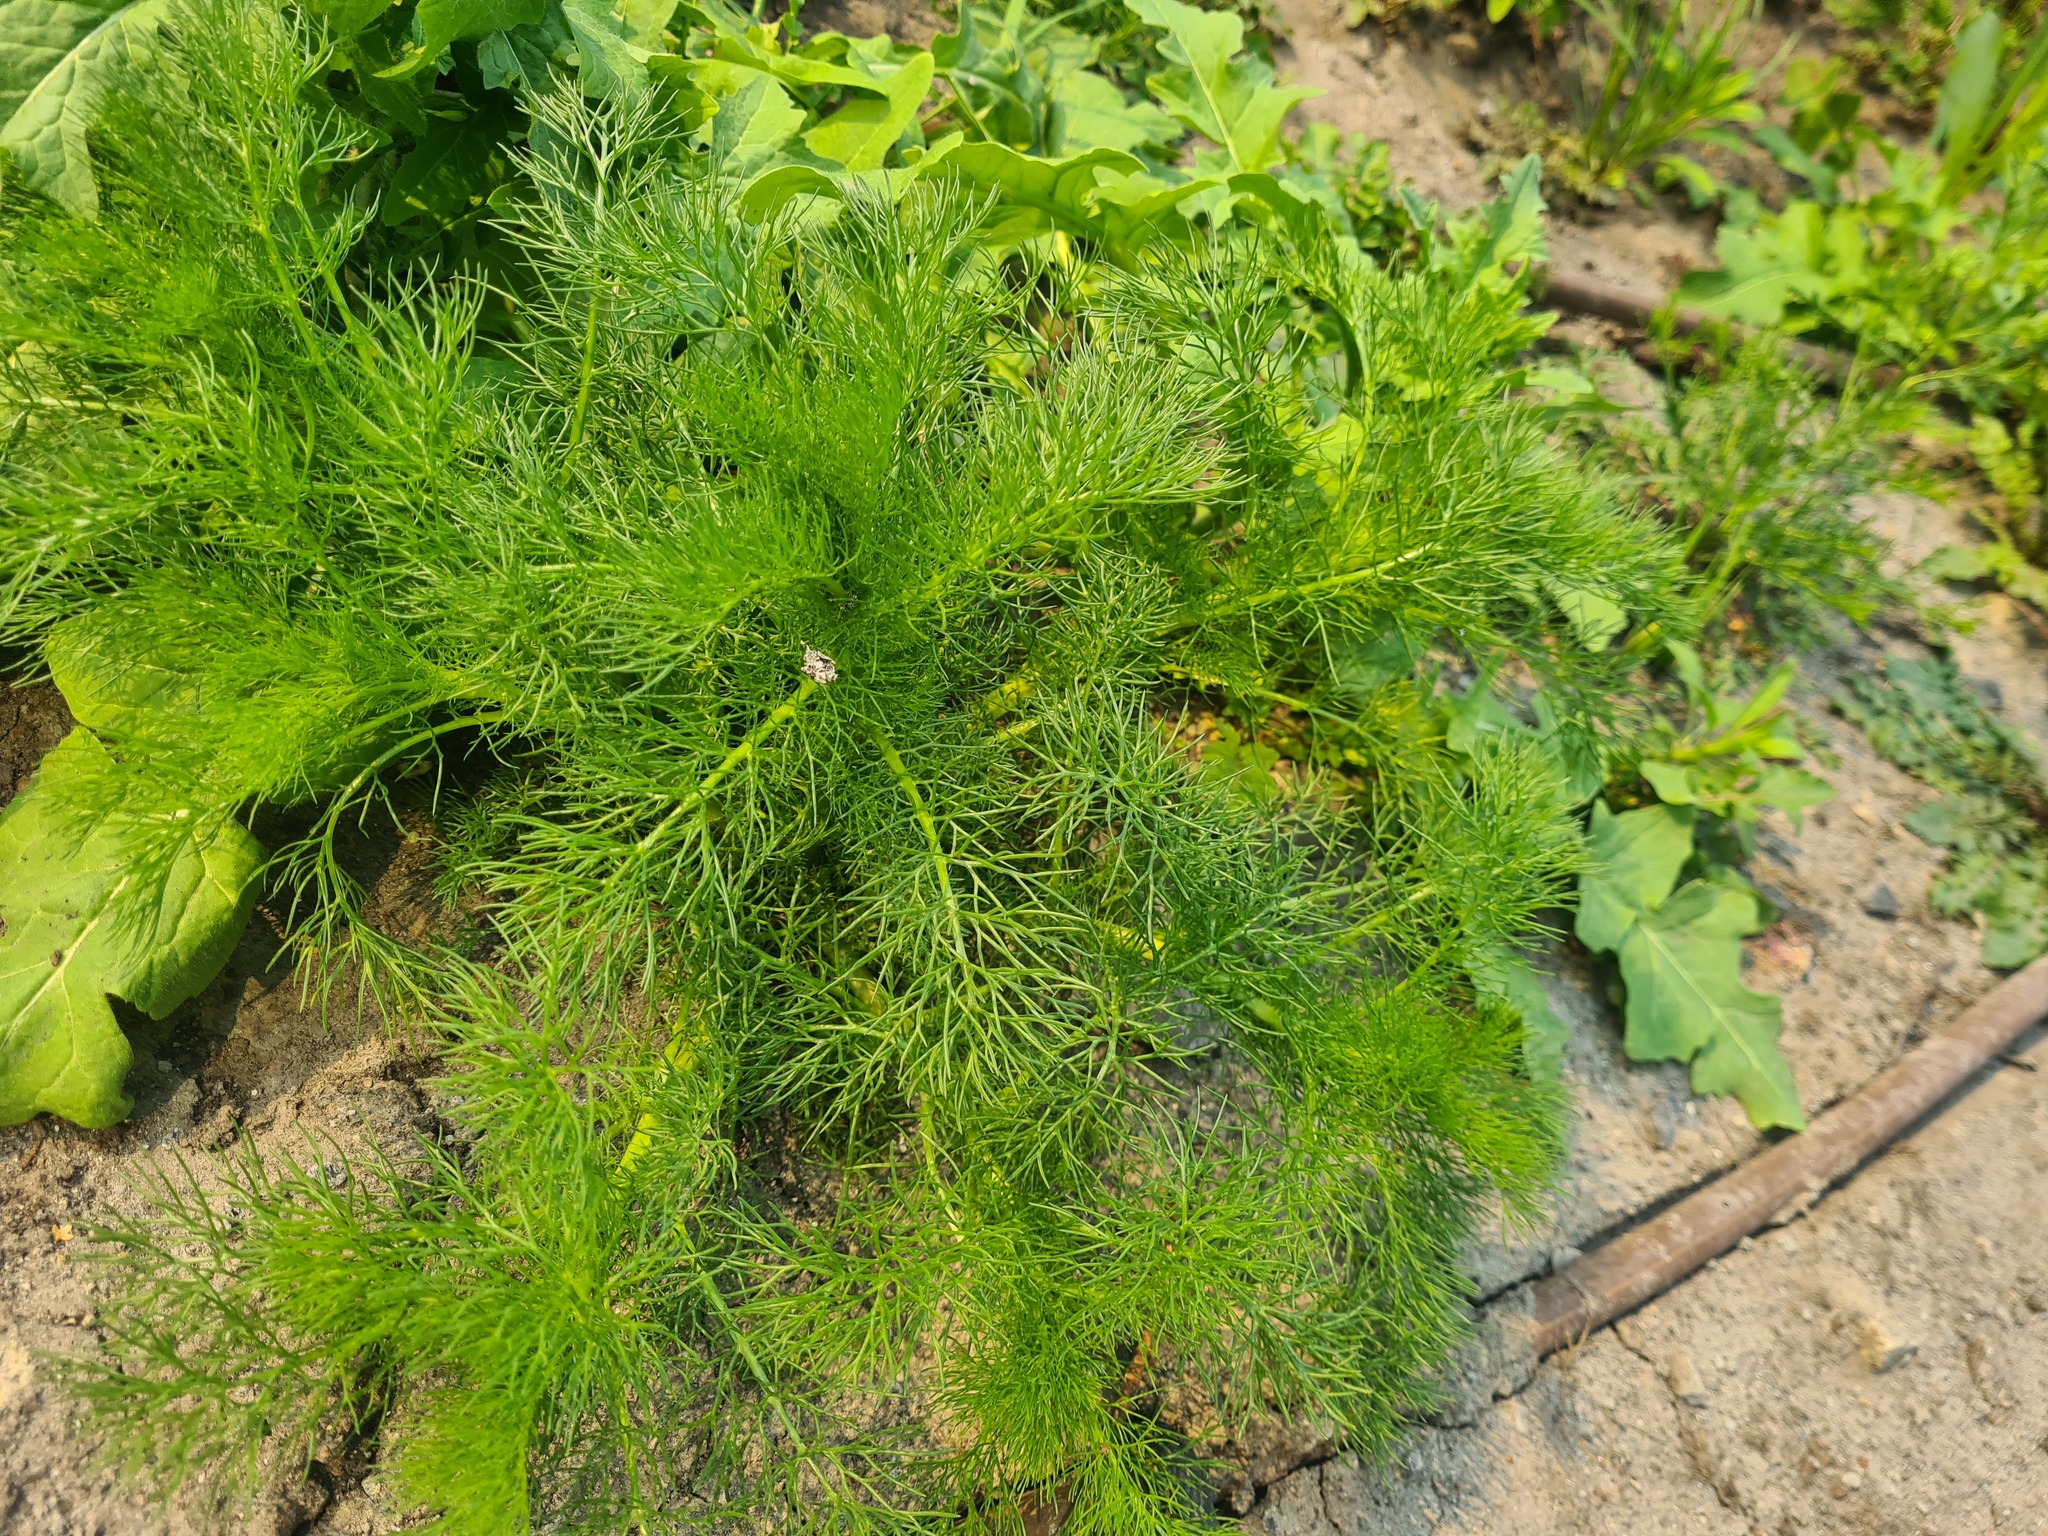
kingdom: Plantae
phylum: Tracheophyta
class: Magnoliopsida
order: Asterales
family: Asteraceae
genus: Tripleurospermum
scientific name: Tripleurospermum inodorum
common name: Scentless mayweed
